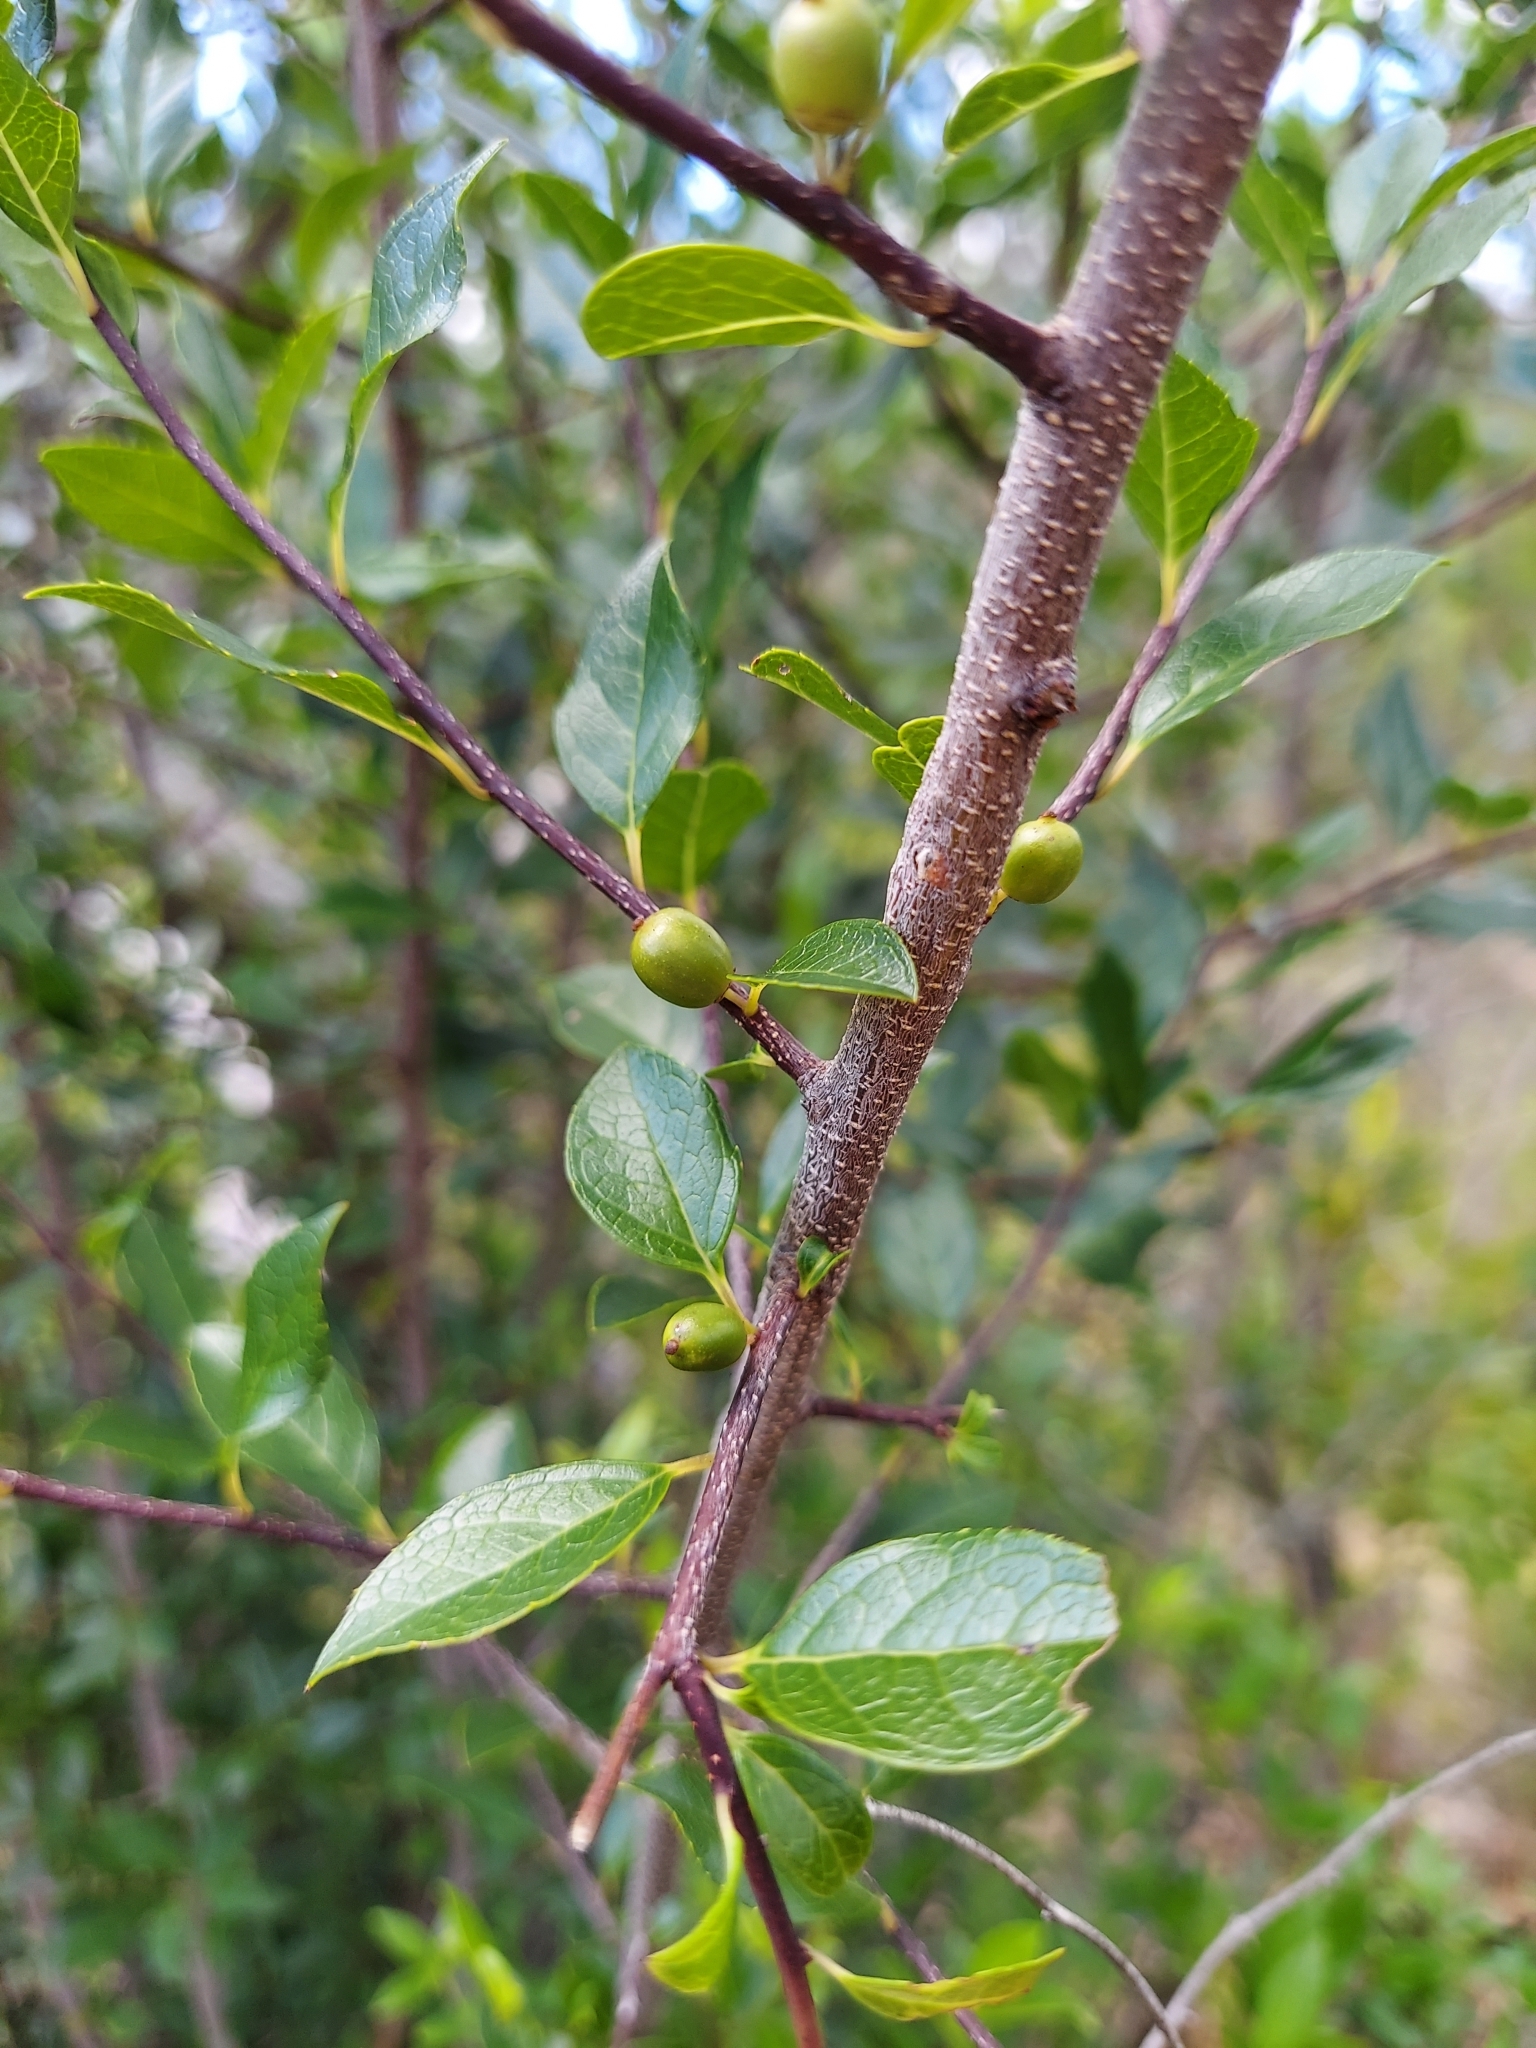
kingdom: Plantae
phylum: Tracheophyta
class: Magnoliopsida
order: Aquifoliales
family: Aquifoliaceae
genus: Ilex
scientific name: Ilex ambigua
